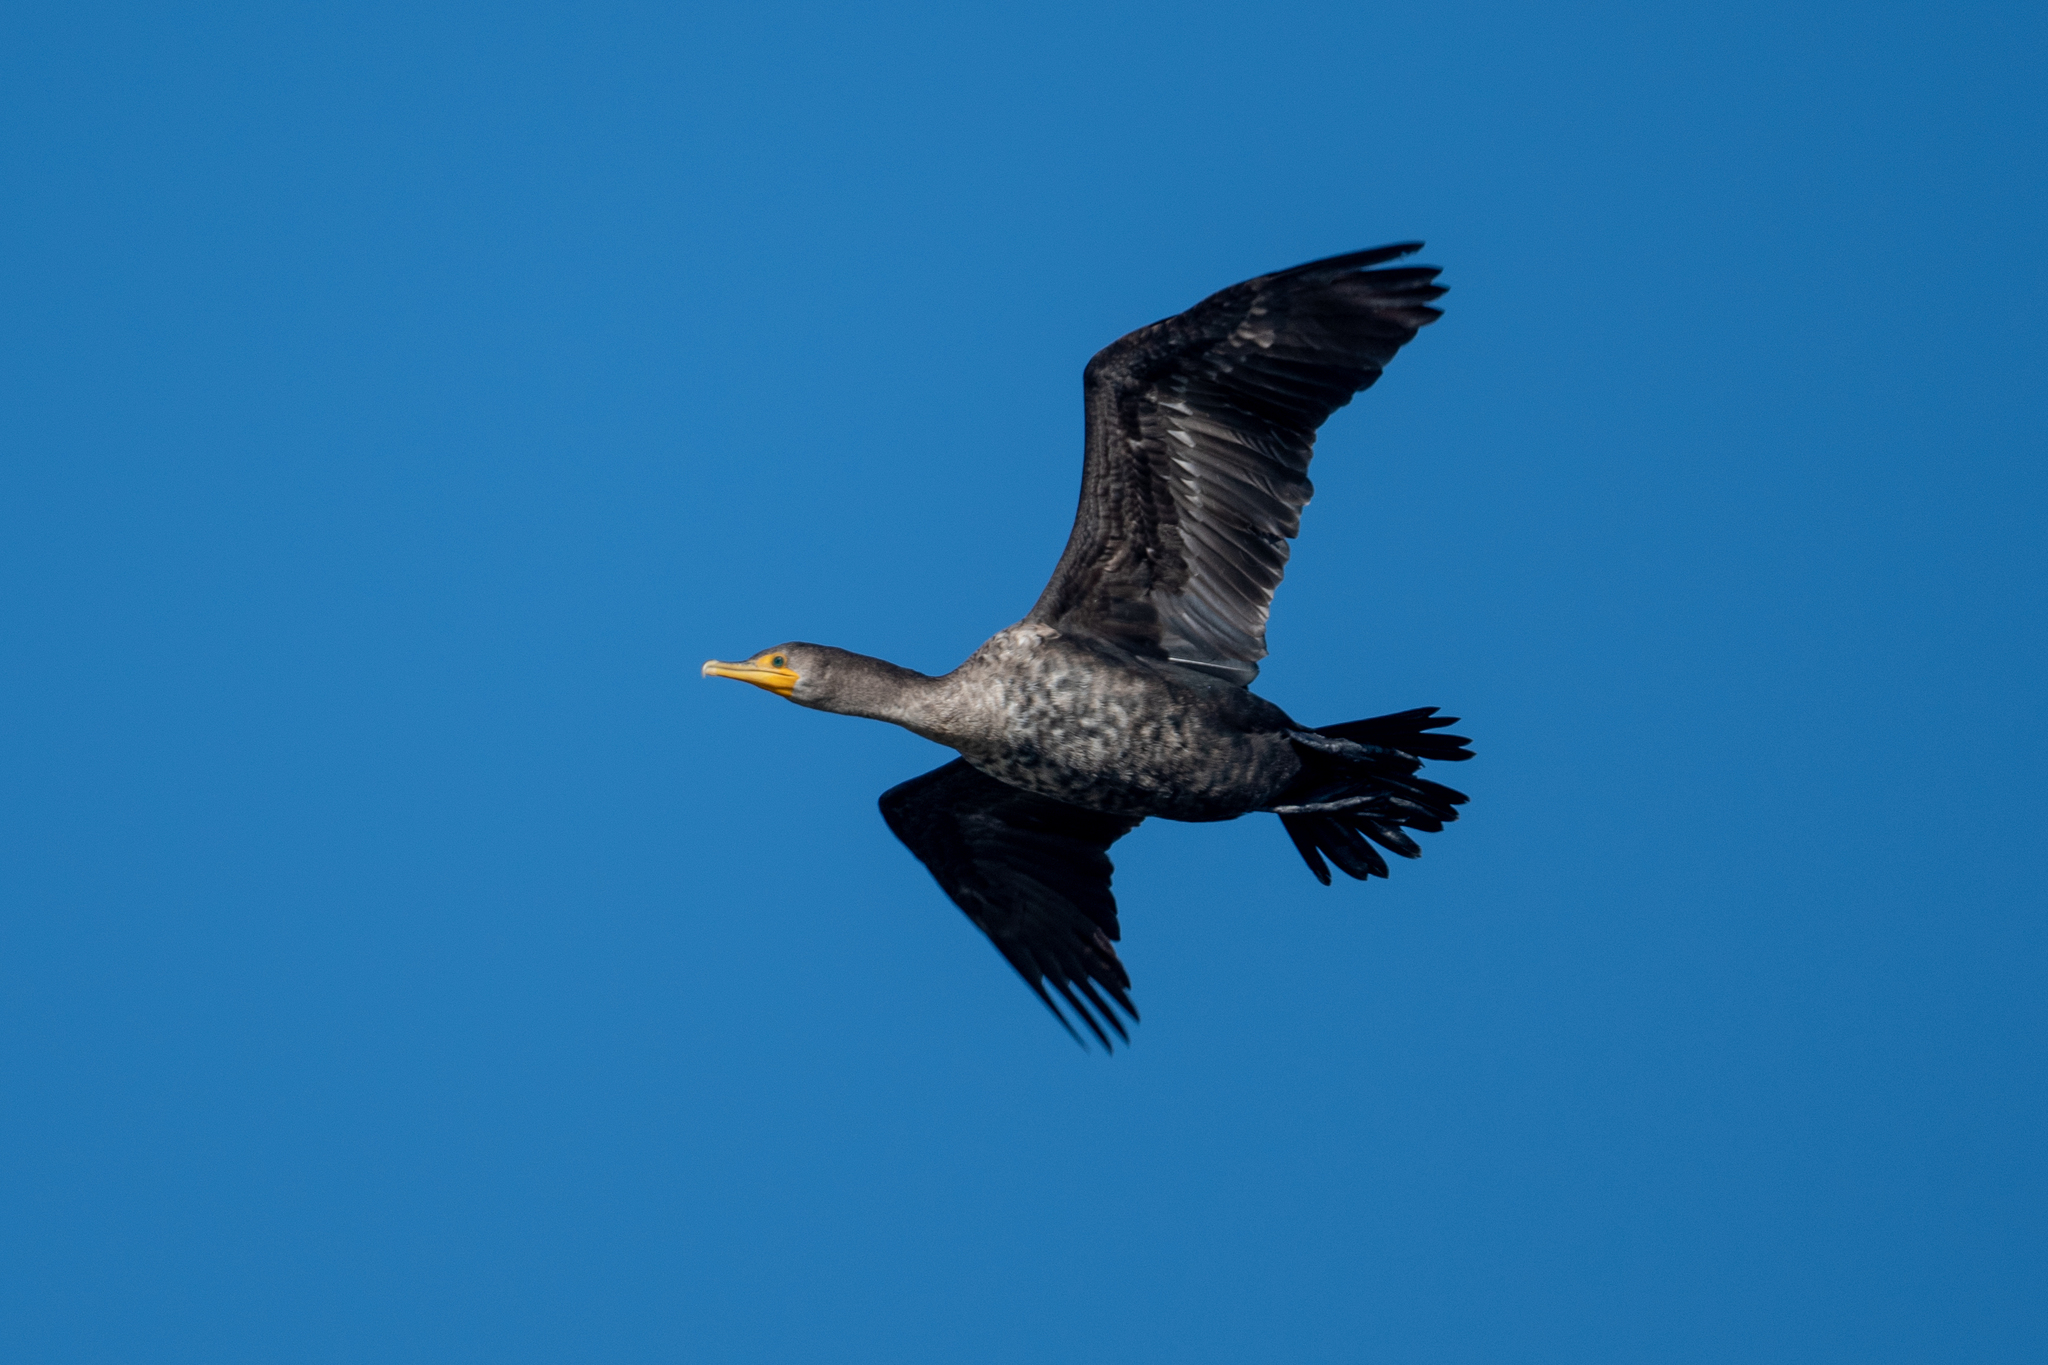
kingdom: Animalia
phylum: Chordata
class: Aves
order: Suliformes
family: Phalacrocoracidae
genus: Phalacrocorax
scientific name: Phalacrocorax auritus
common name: Double-crested cormorant
